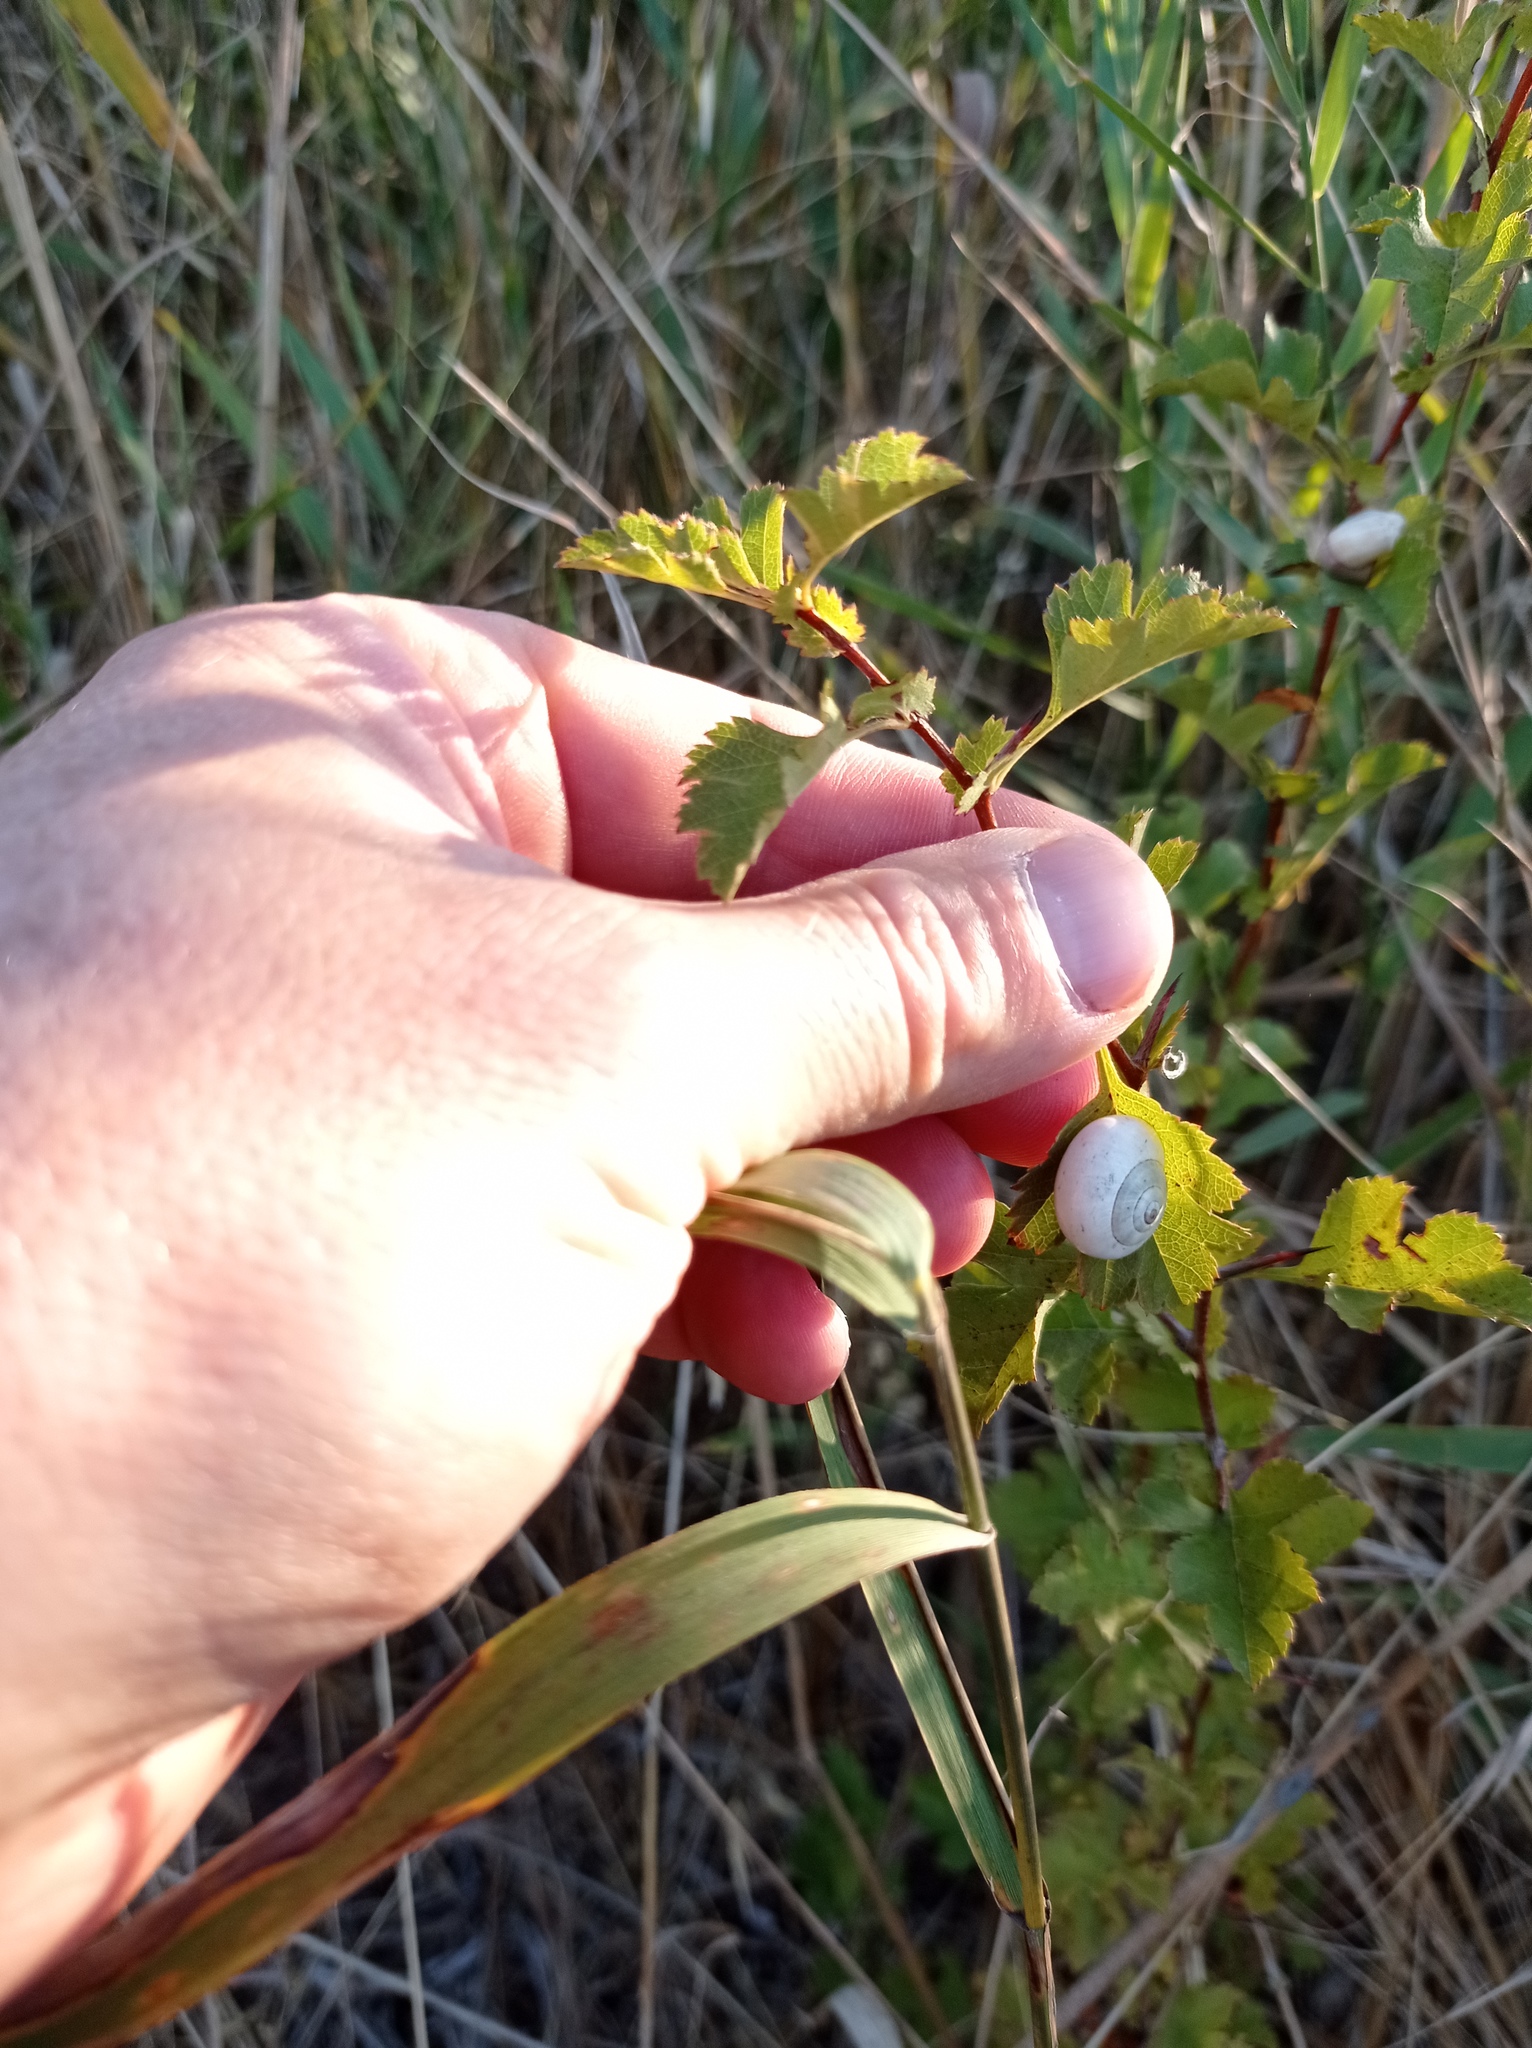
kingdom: Animalia
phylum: Mollusca
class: Gastropoda
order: Stylommatophora
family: Helicidae
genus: Theba
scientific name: Theba pisana
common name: White snail
